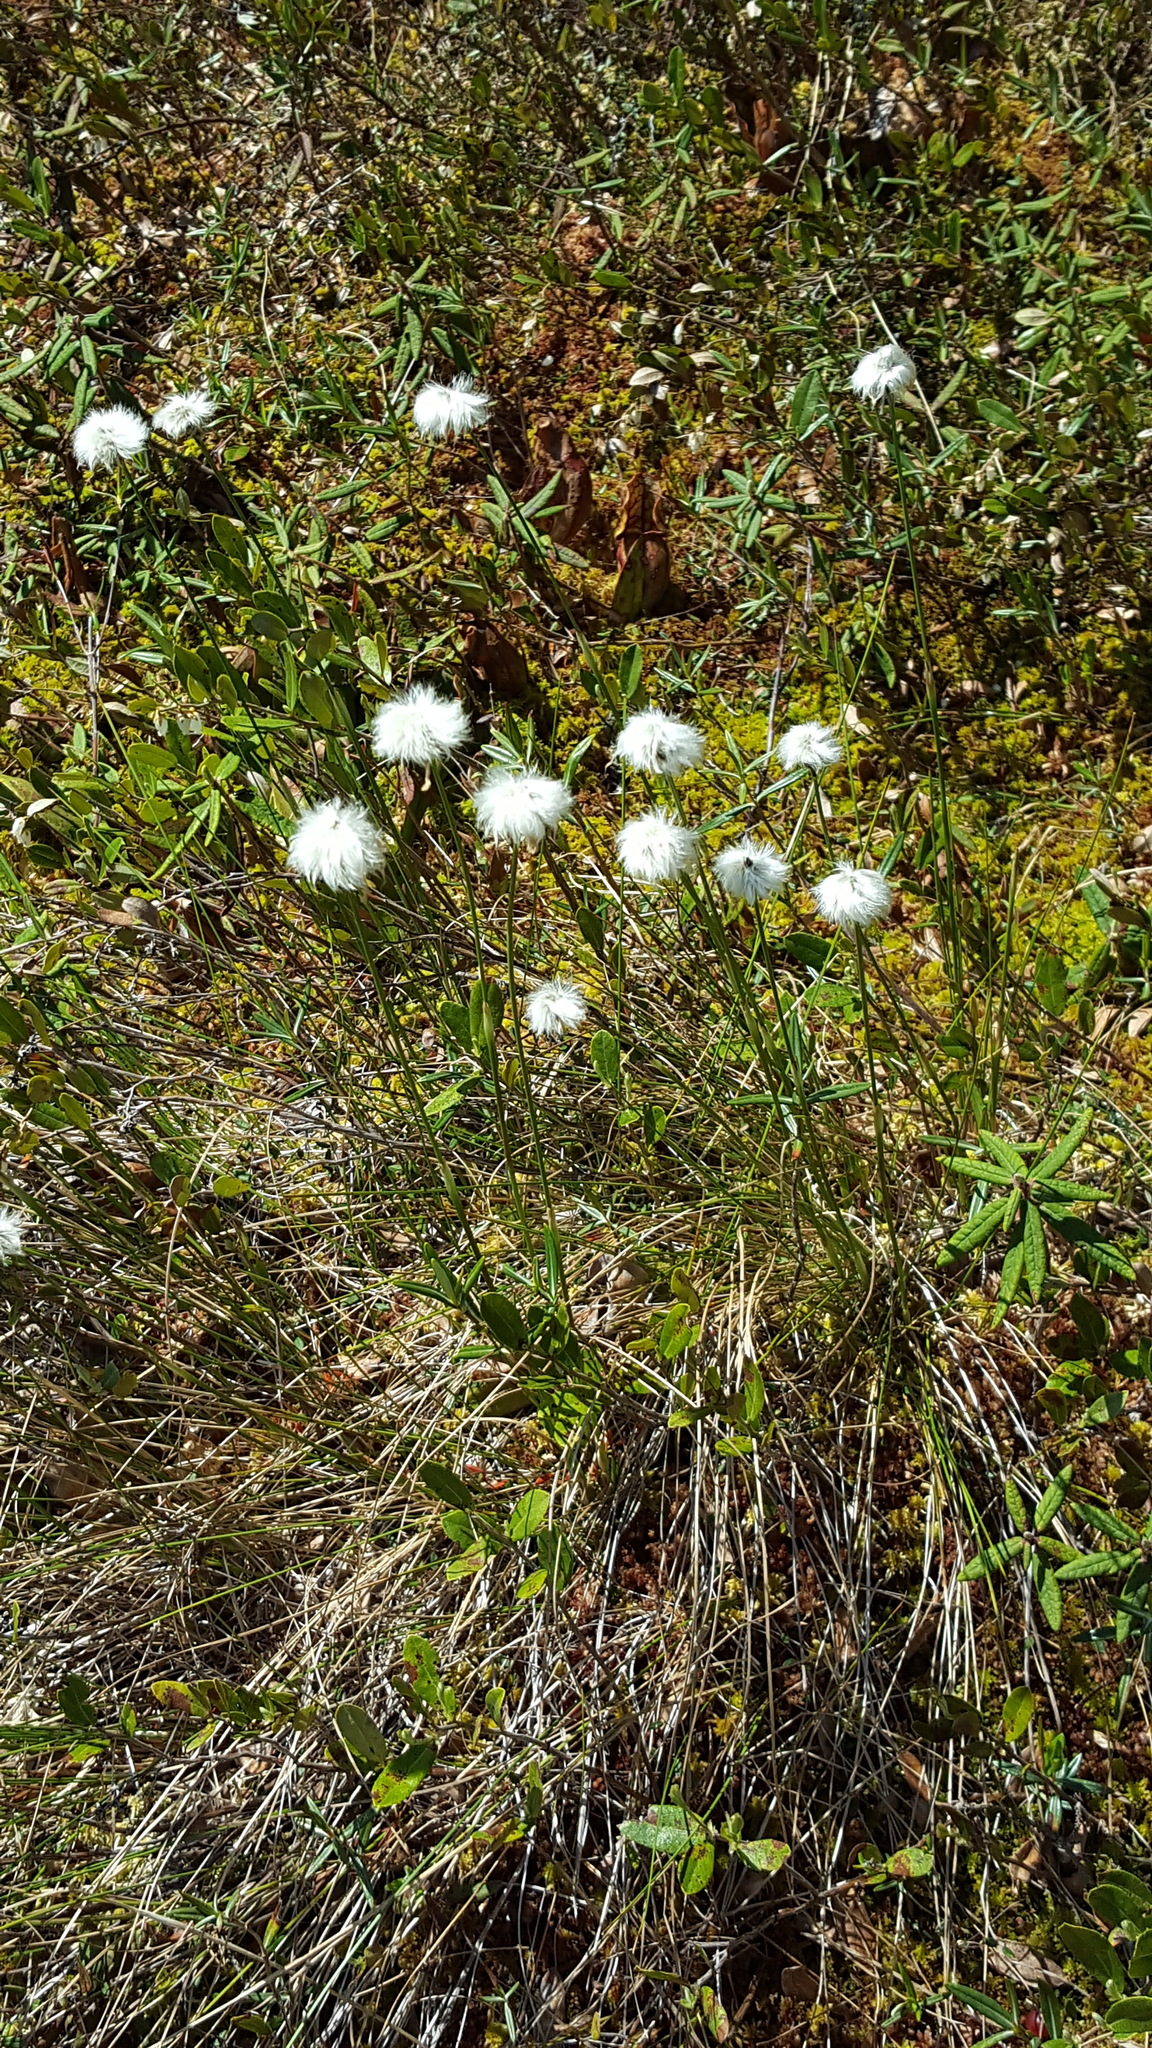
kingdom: Plantae
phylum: Tracheophyta
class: Liliopsida
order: Poales
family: Cyperaceae
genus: Eriophorum
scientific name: Eriophorum vaginatum
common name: Hare's-tail cottongrass
